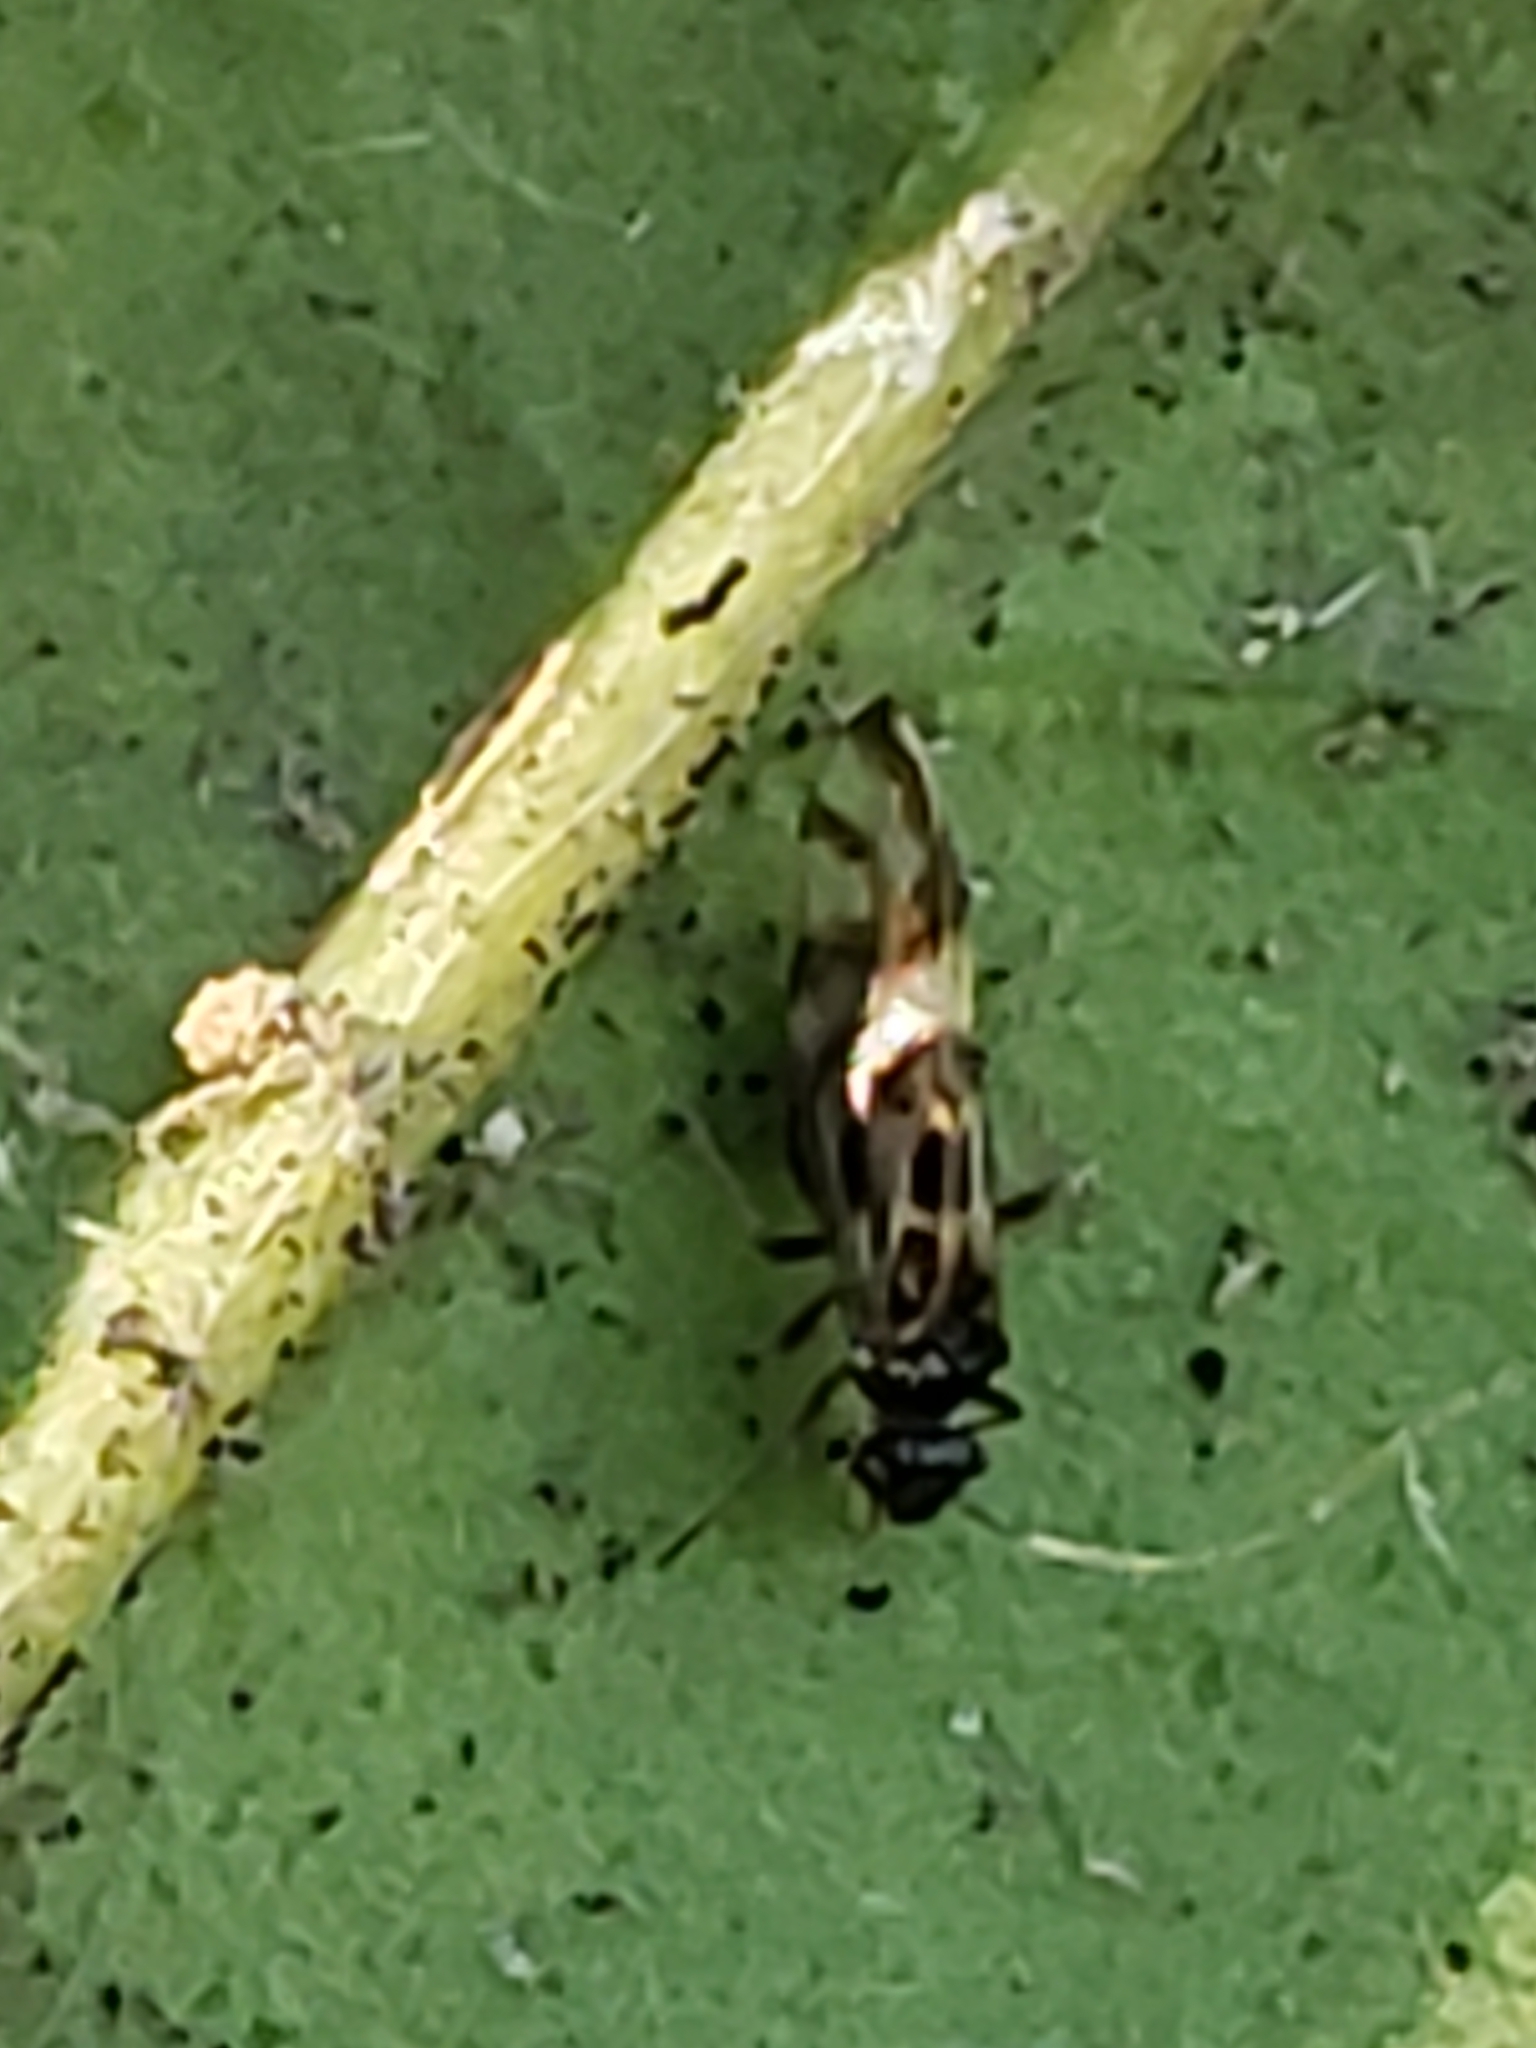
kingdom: Animalia
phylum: Arthropoda
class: Insecta
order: Psocodea
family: Stenopsocidae
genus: Graphopsocus
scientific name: Graphopsocus cruciatus
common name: Lizard bark louse
